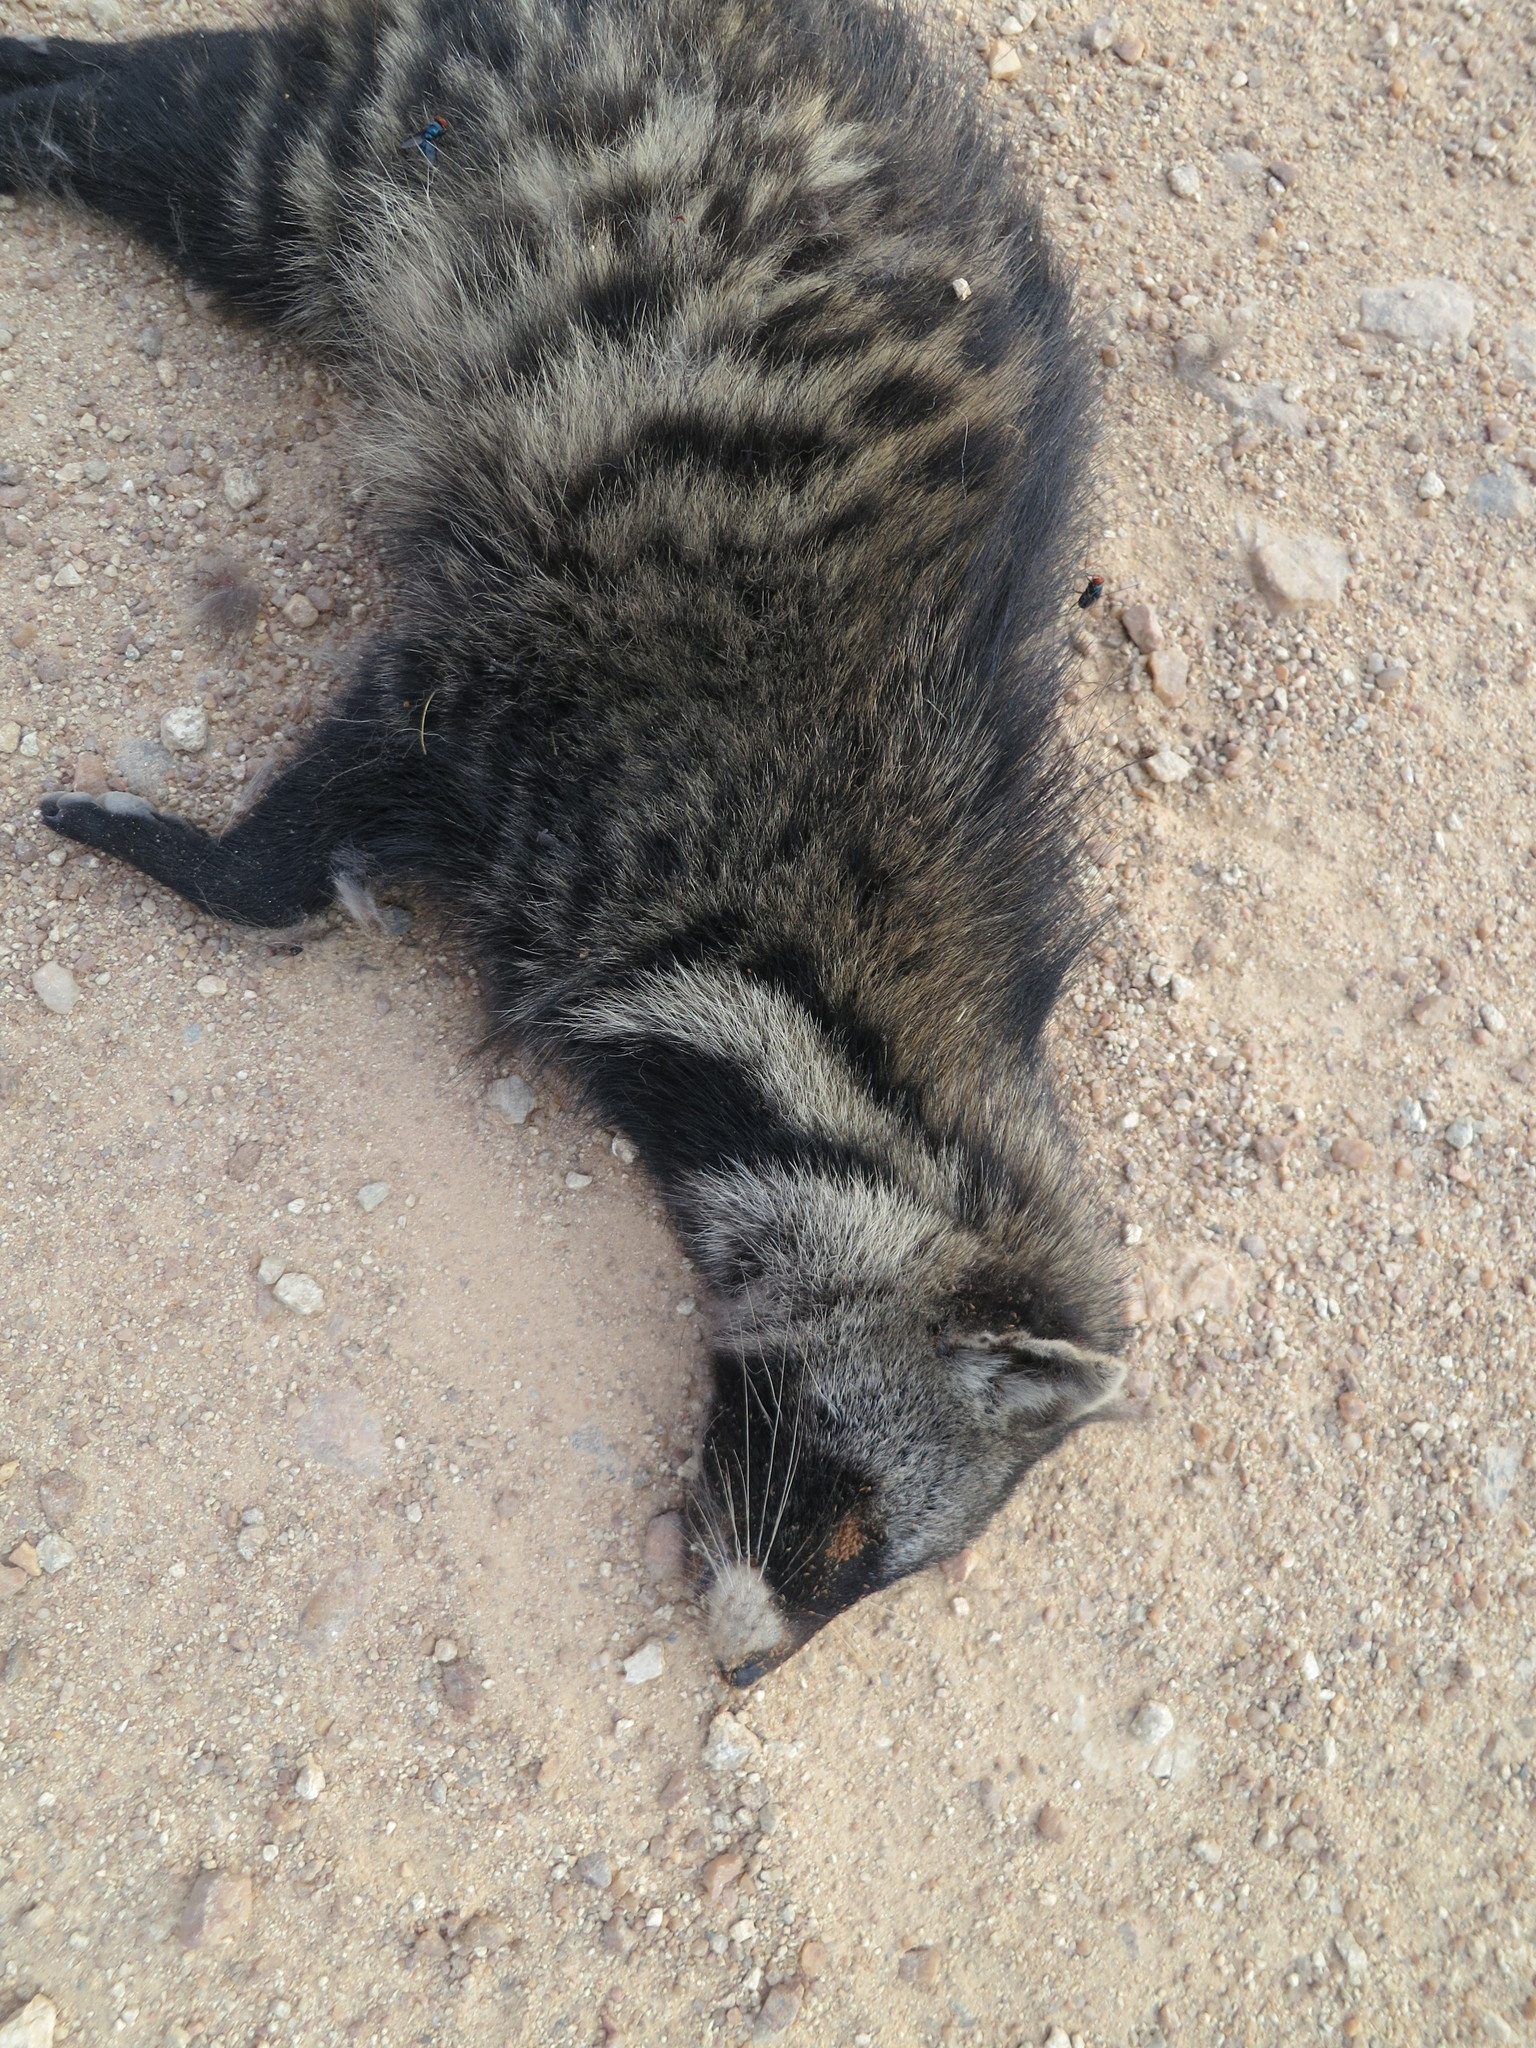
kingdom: Animalia
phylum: Chordata
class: Mammalia
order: Carnivora
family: Viverridae
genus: Civettictis
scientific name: Civettictis civetta
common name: African civet
